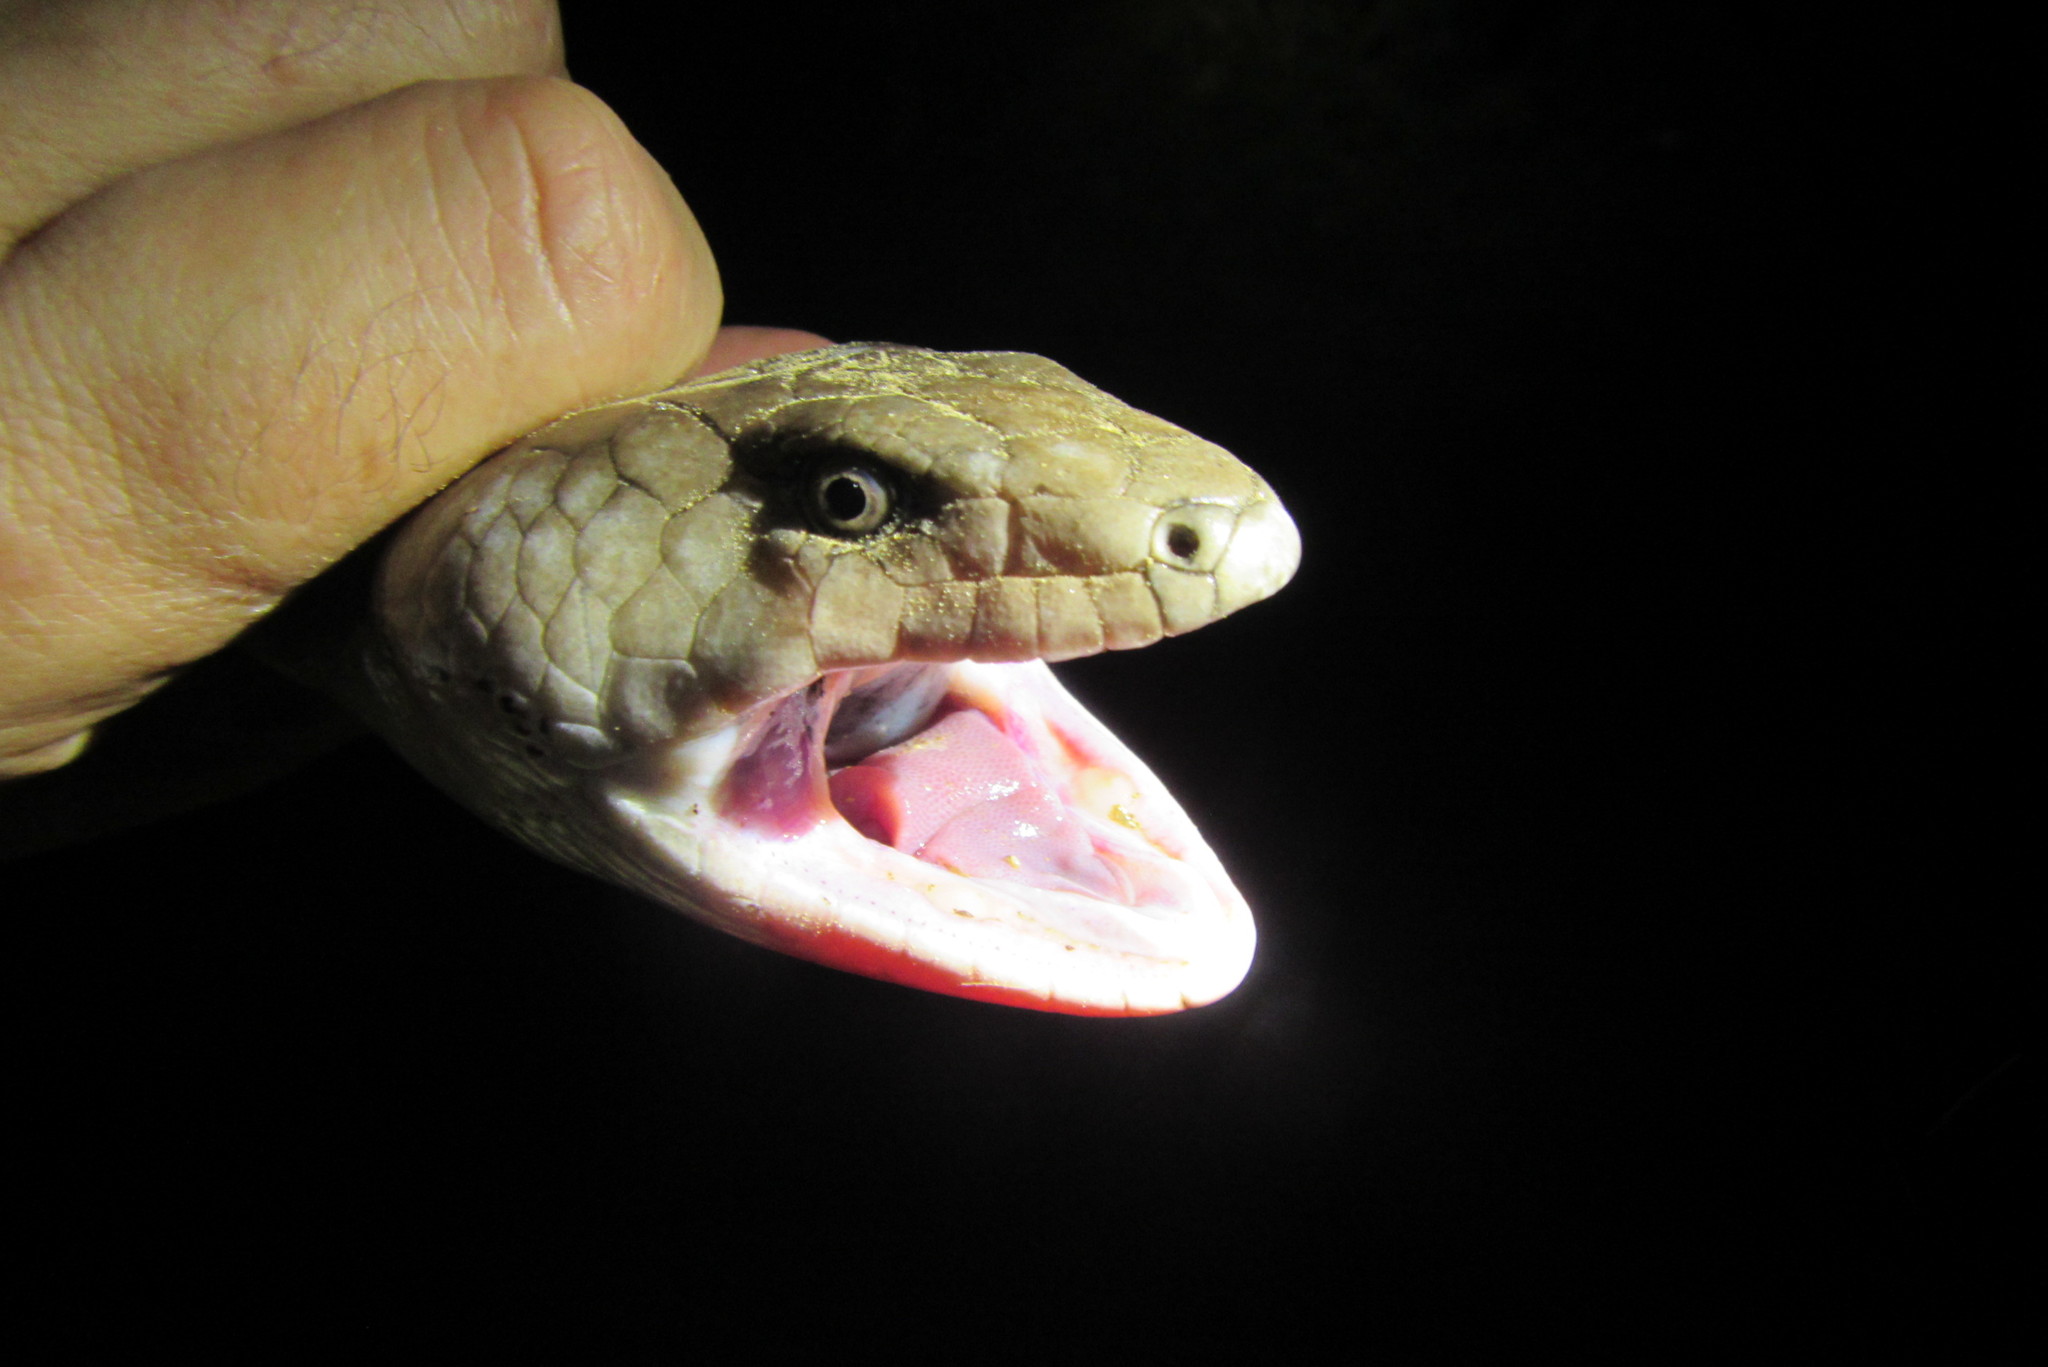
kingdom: Animalia
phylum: Chordata
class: Squamata
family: Scincidae
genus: Cyclodomorphus
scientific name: Cyclodomorphus gerrardii
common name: Pink-tongued lizard
